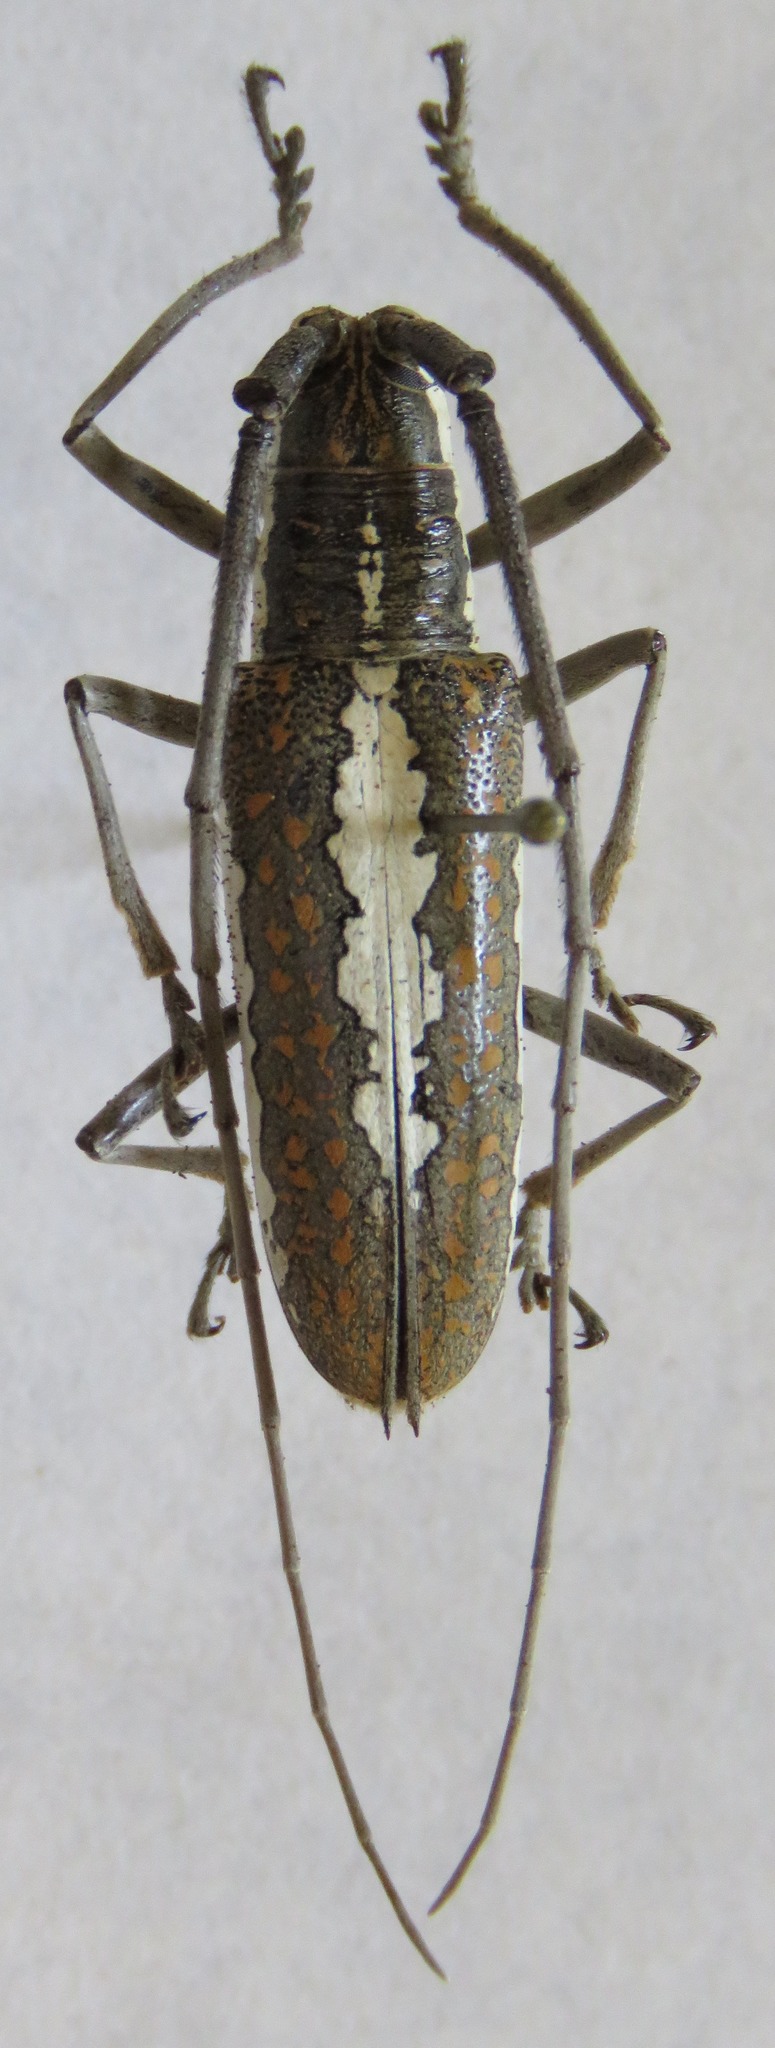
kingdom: Animalia
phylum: Arthropoda
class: Insecta
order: Coleoptera
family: Cerambycidae
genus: Neoptychodes
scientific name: Neoptychodes trilineatus
